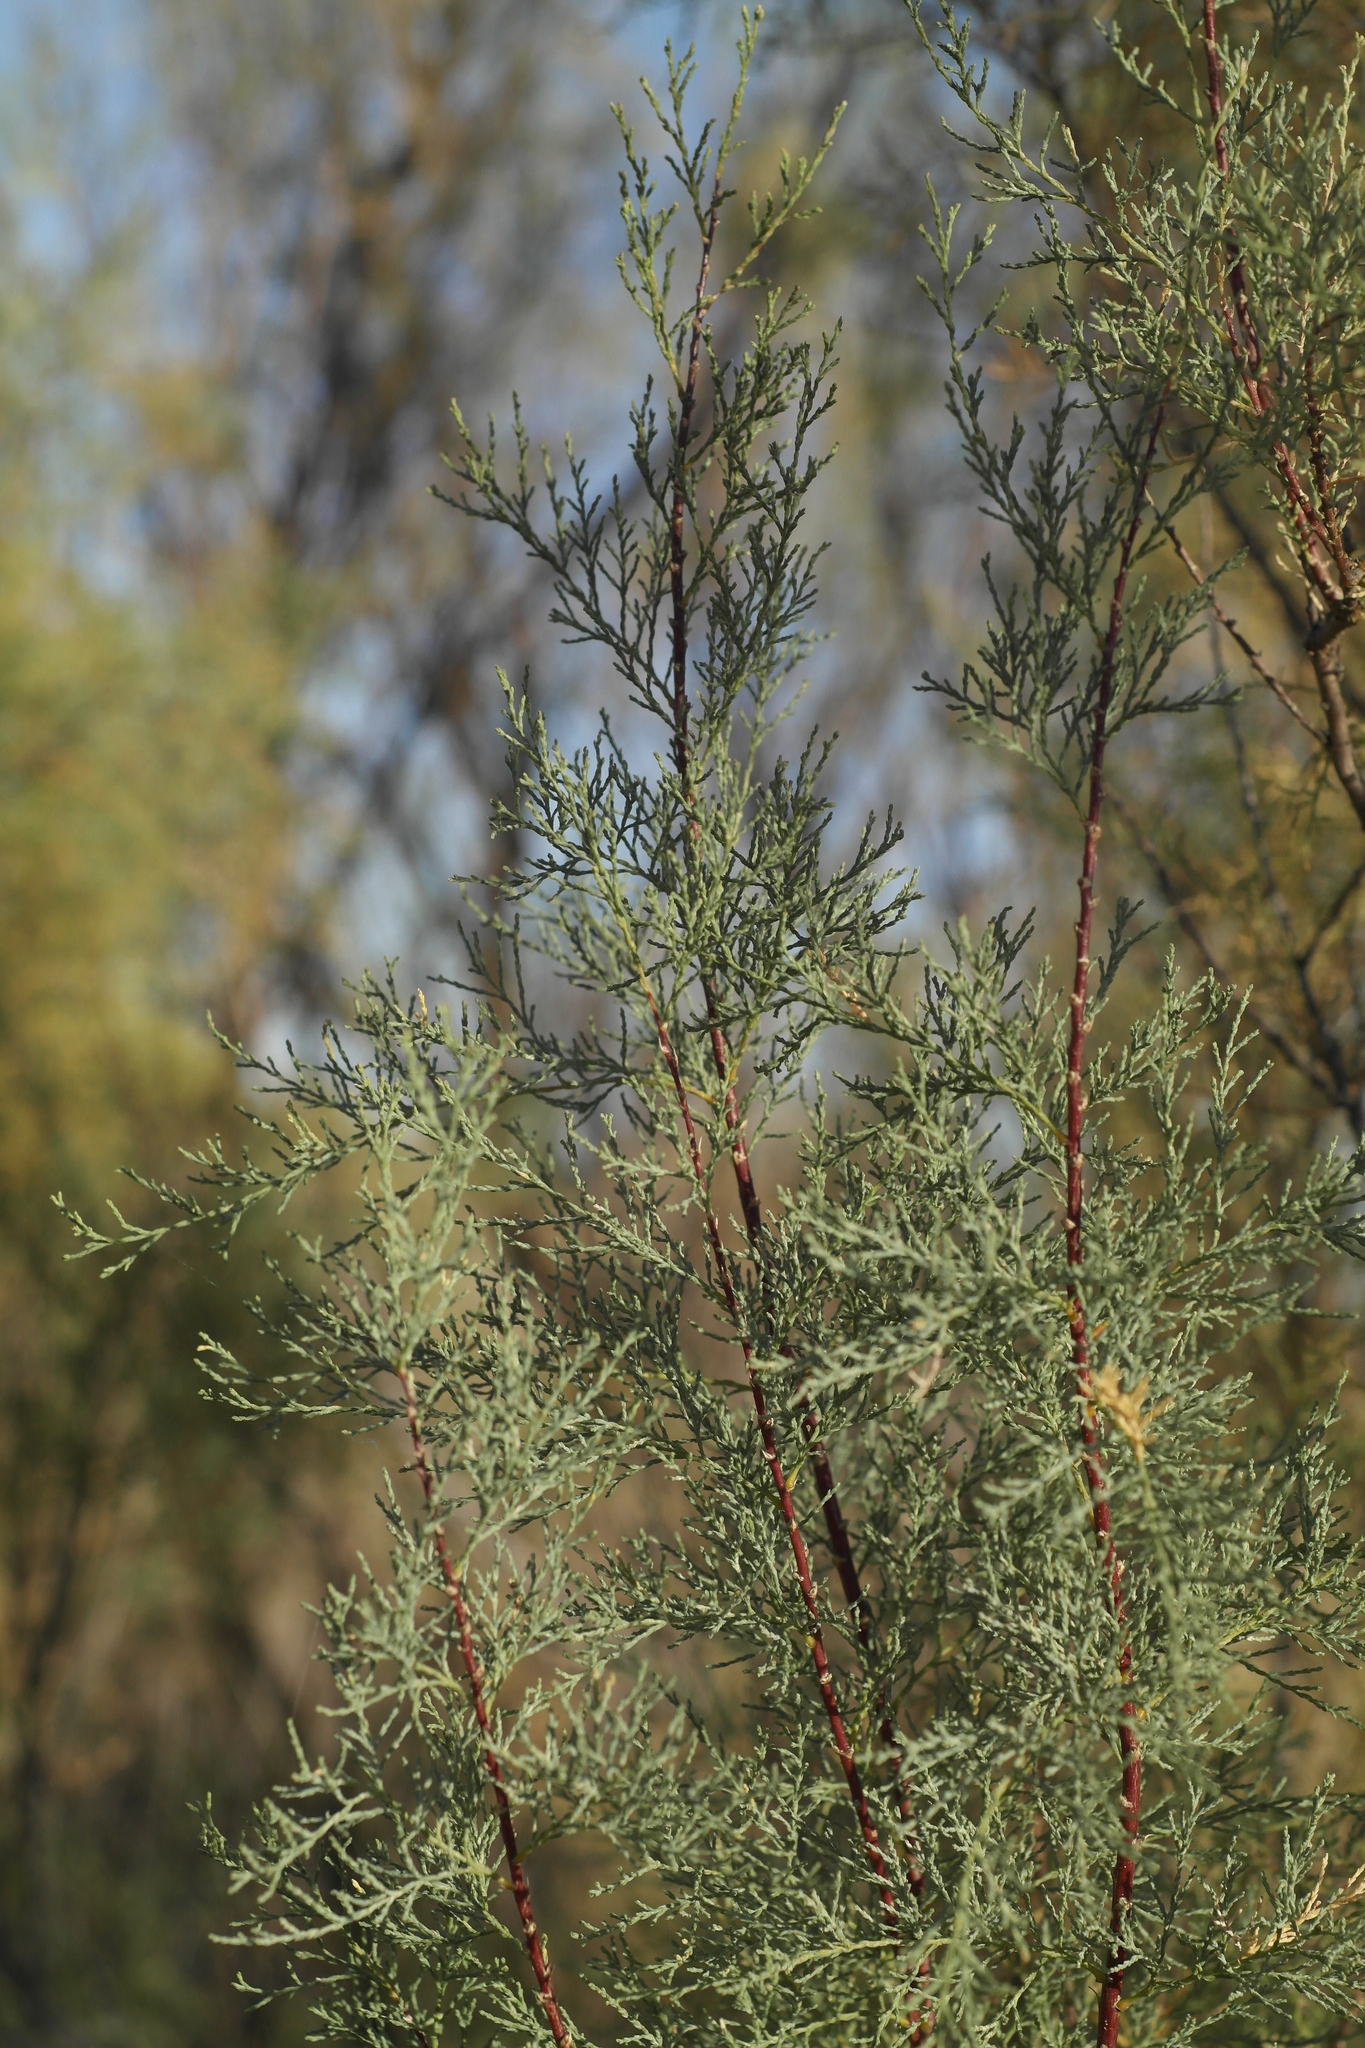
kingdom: Plantae
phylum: Tracheophyta
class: Magnoliopsida
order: Caryophyllales
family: Tamaricaceae
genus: Tamarix
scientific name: Tamarix ramosissima
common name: Pink tamarisk
